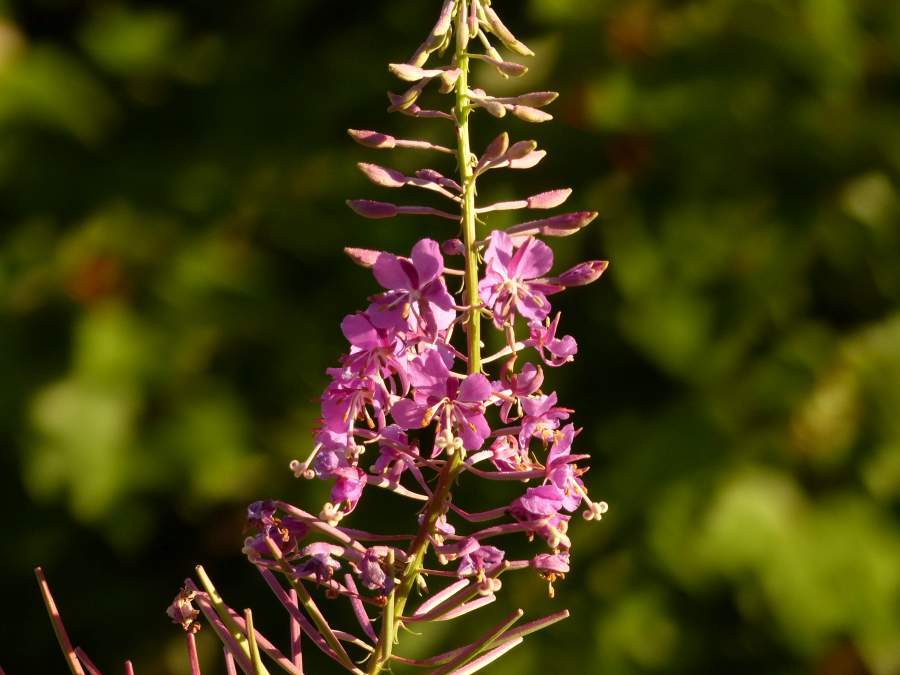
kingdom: Plantae
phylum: Tracheophyta
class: Magnoliopsida
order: Myrtales
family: Onagraceae
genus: Chamaenerion
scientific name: Chamaenerion angustifolium
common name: Fireweed
